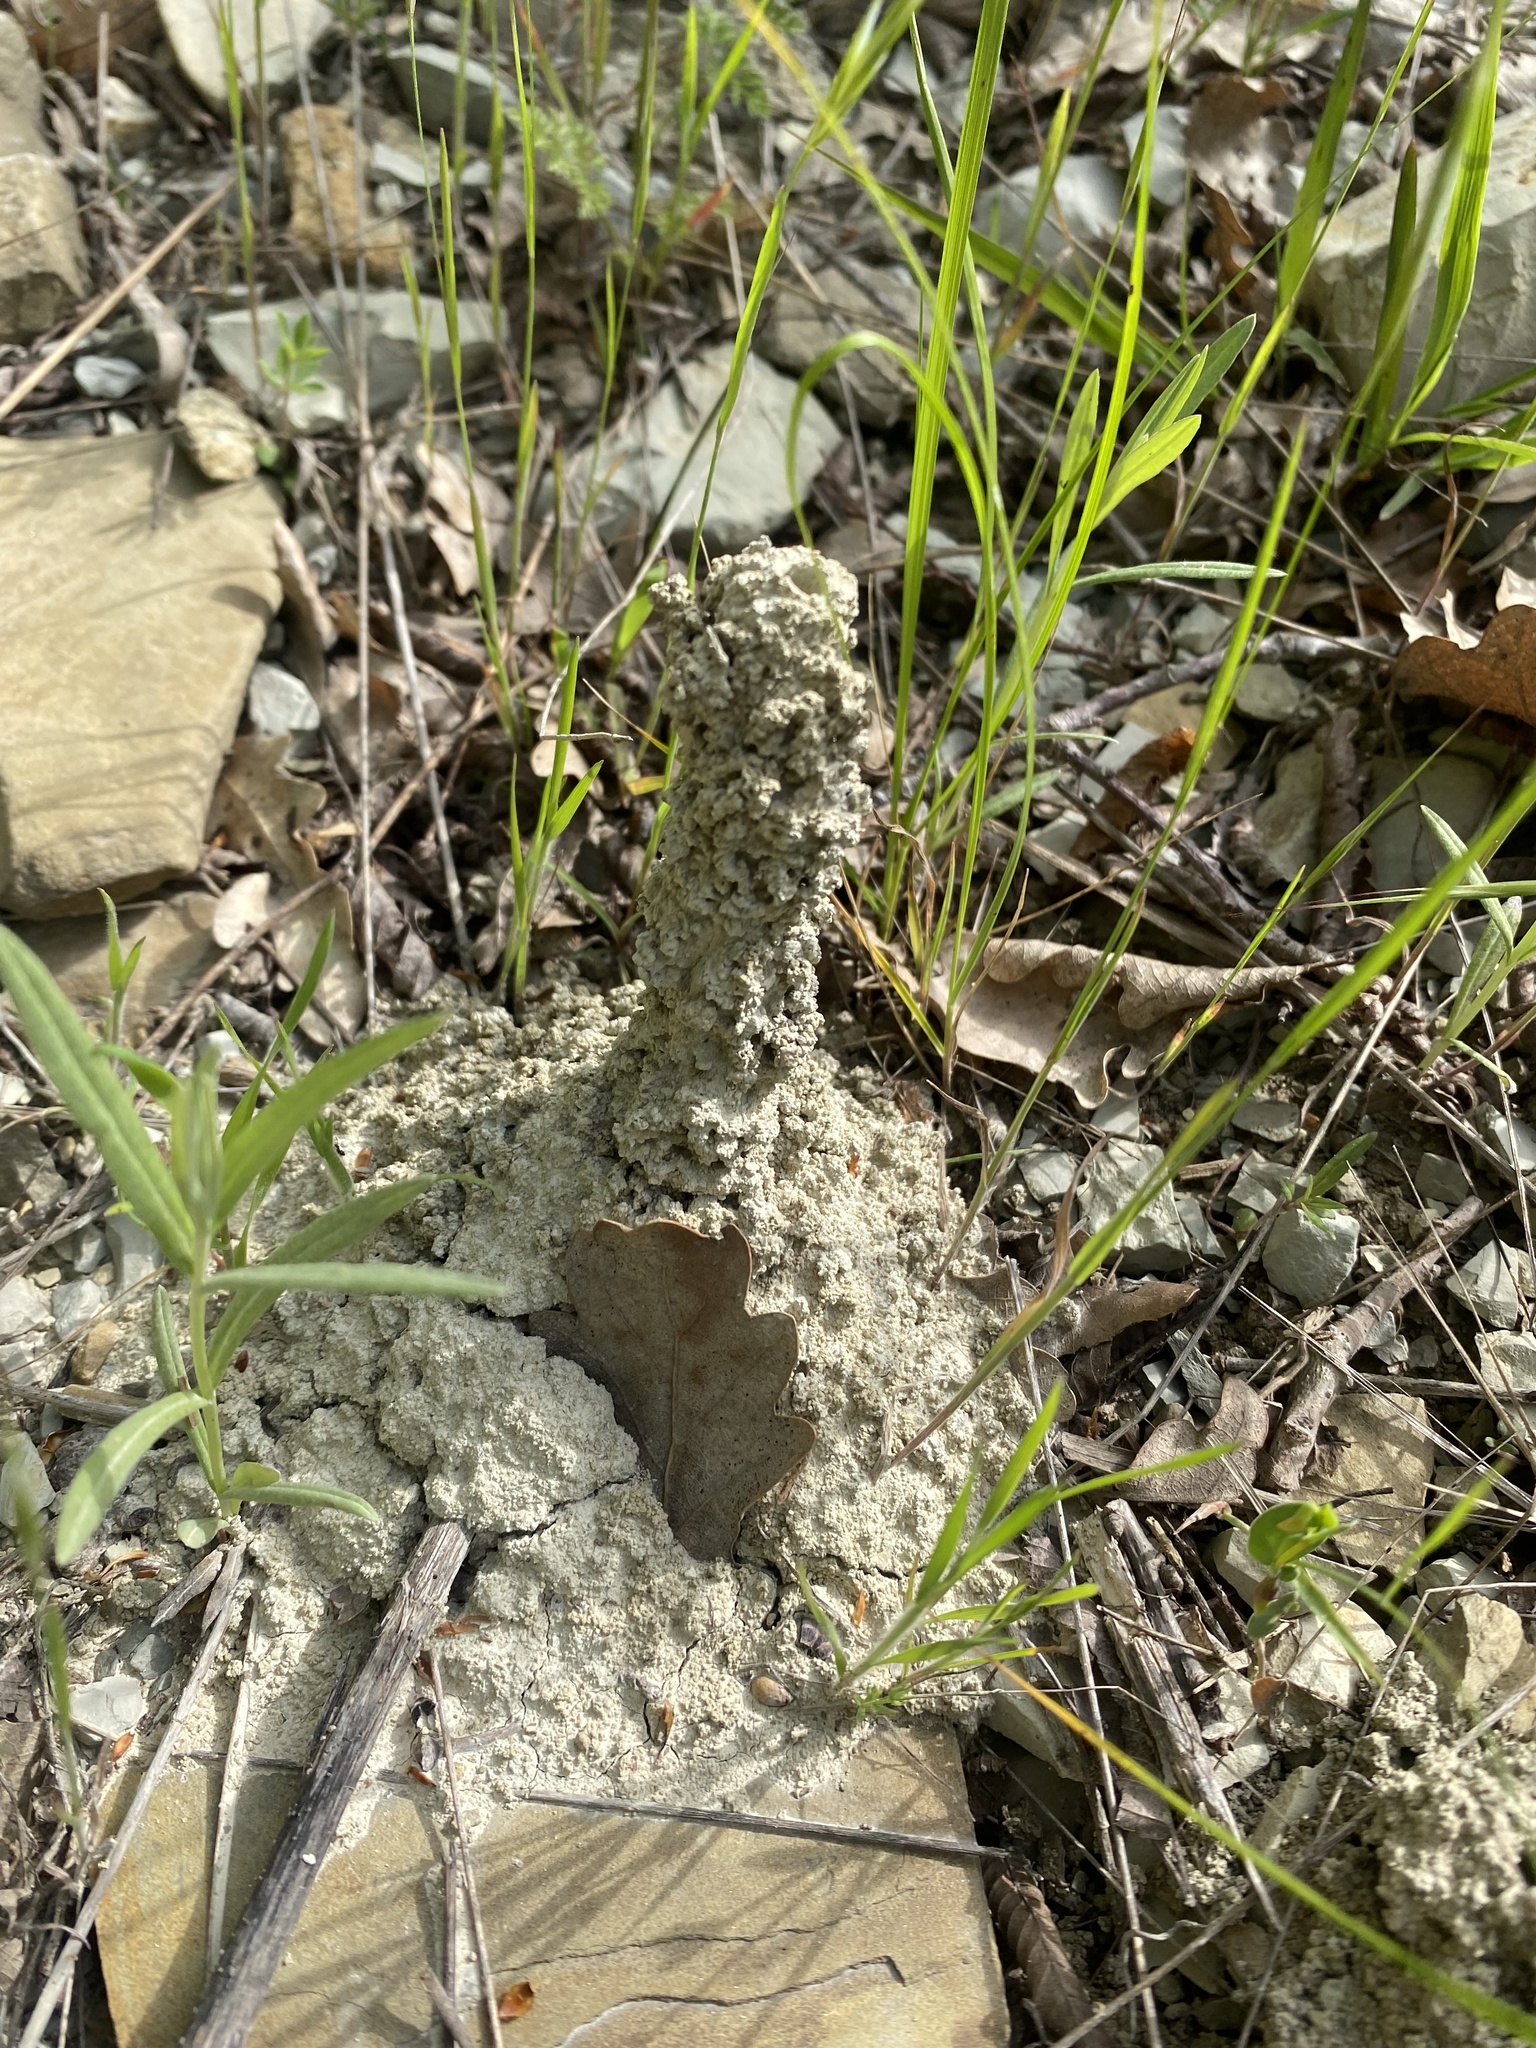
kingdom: Animalia
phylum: Arthropoda
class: Insecta
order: Hymenoptera
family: Vespidae
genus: Odynerus
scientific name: Odynerus
